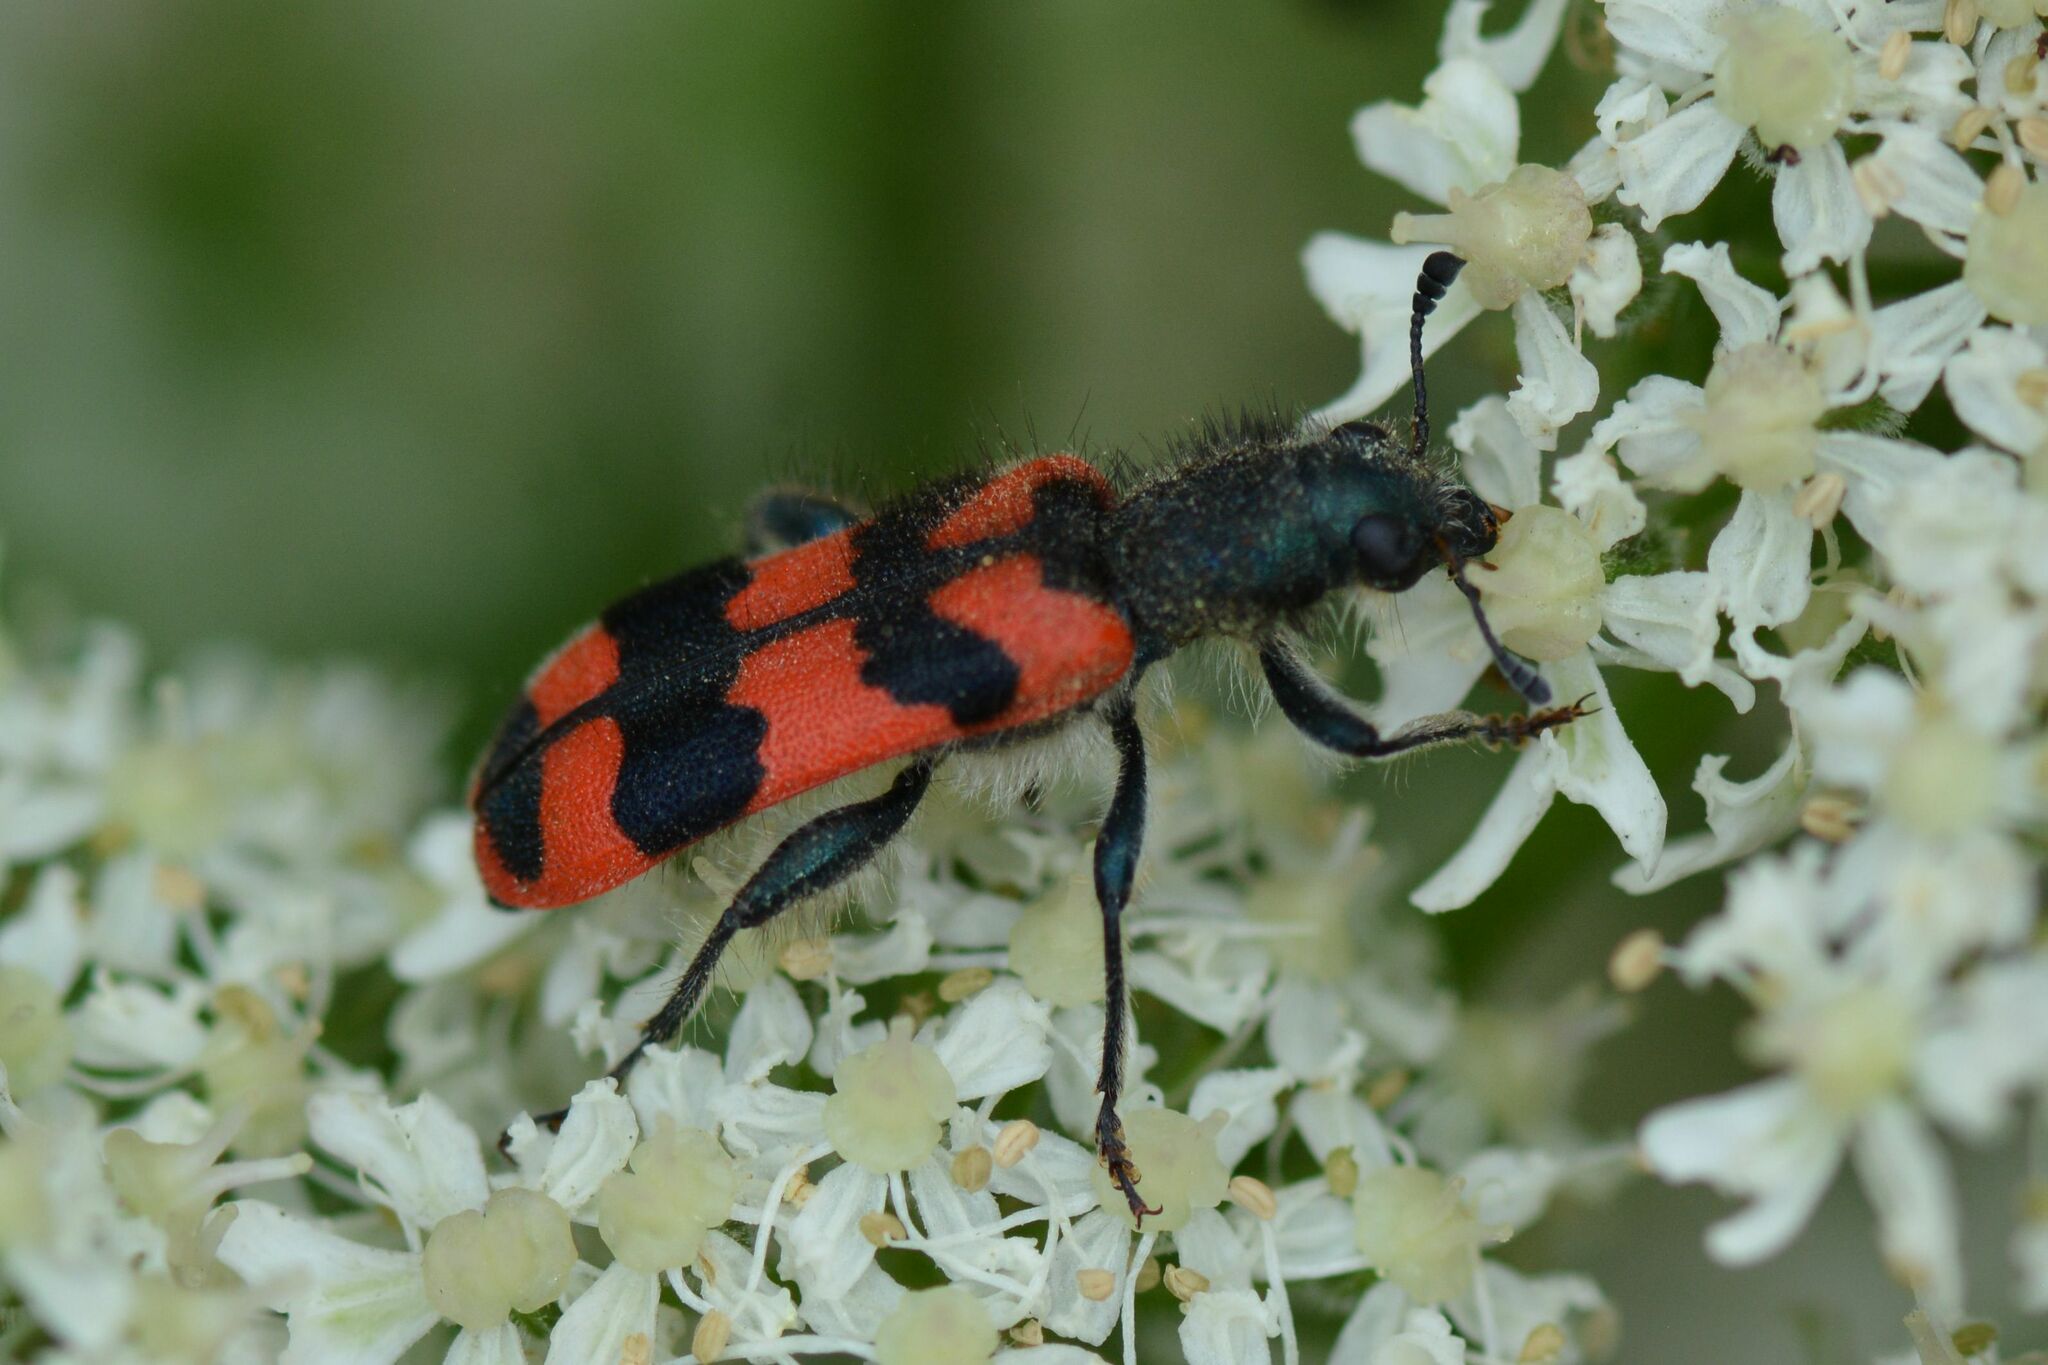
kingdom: Animalia
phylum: Arthropoda
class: Insecta
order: Coleoptera
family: Cleridae
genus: Trichodes
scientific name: Trichodes alvearius
